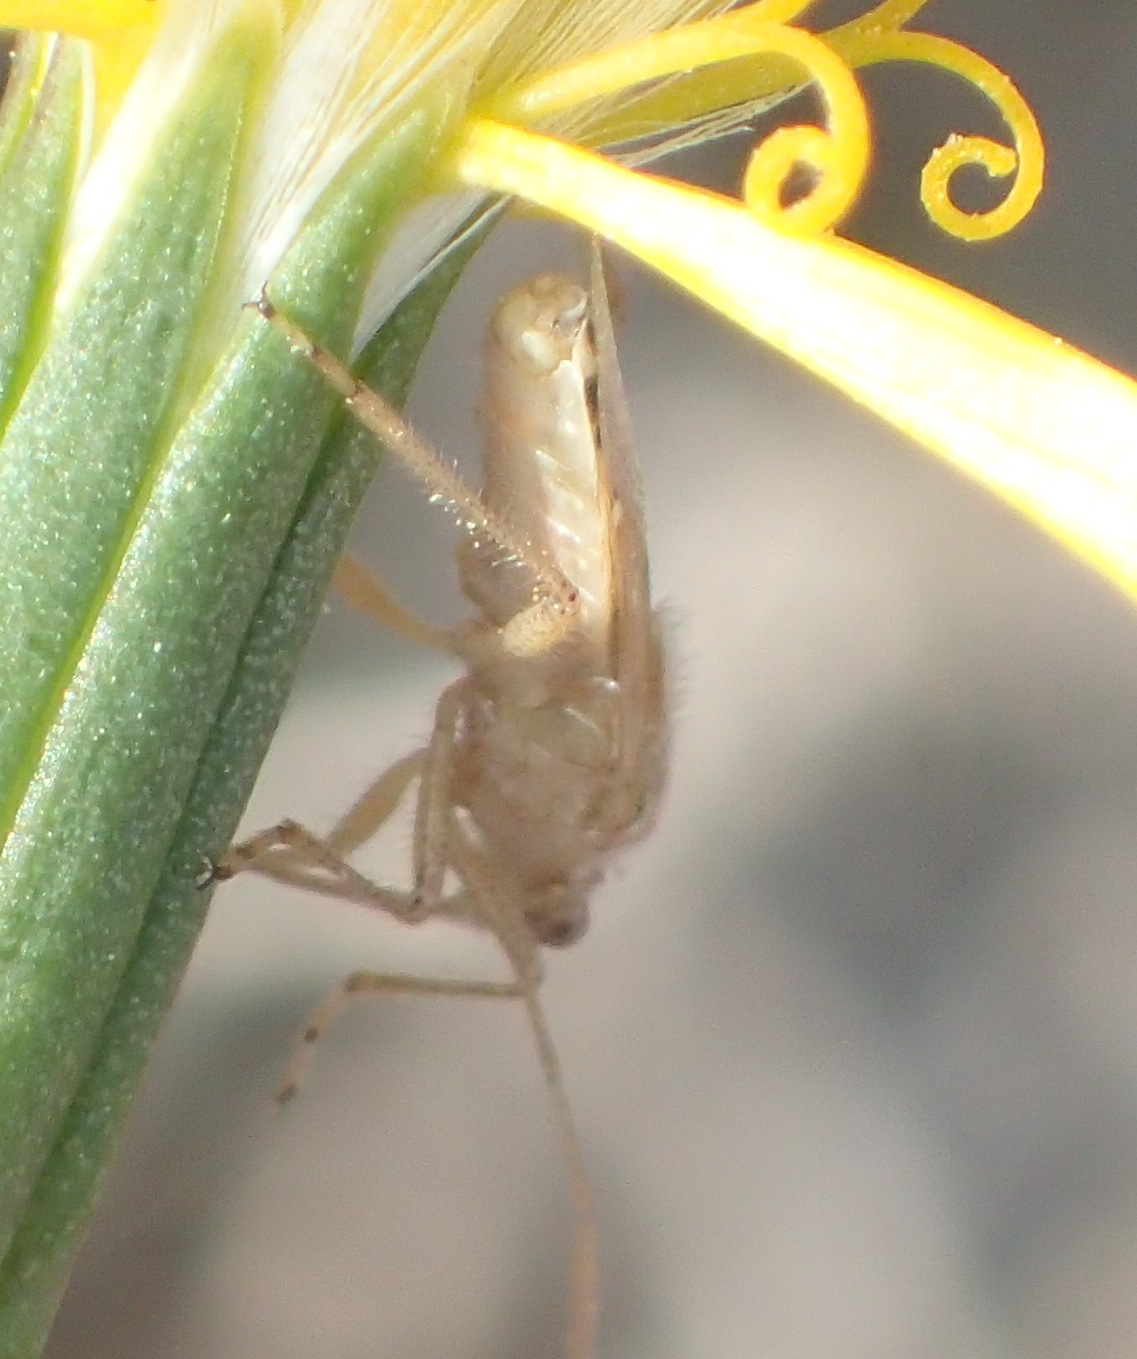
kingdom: Animalia
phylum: Arthropoda
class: Insecta
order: Hemiptera
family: Rhopalidae
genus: Liorhyssus
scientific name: Liorhyssus hyalinus
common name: Scentless plant bug
